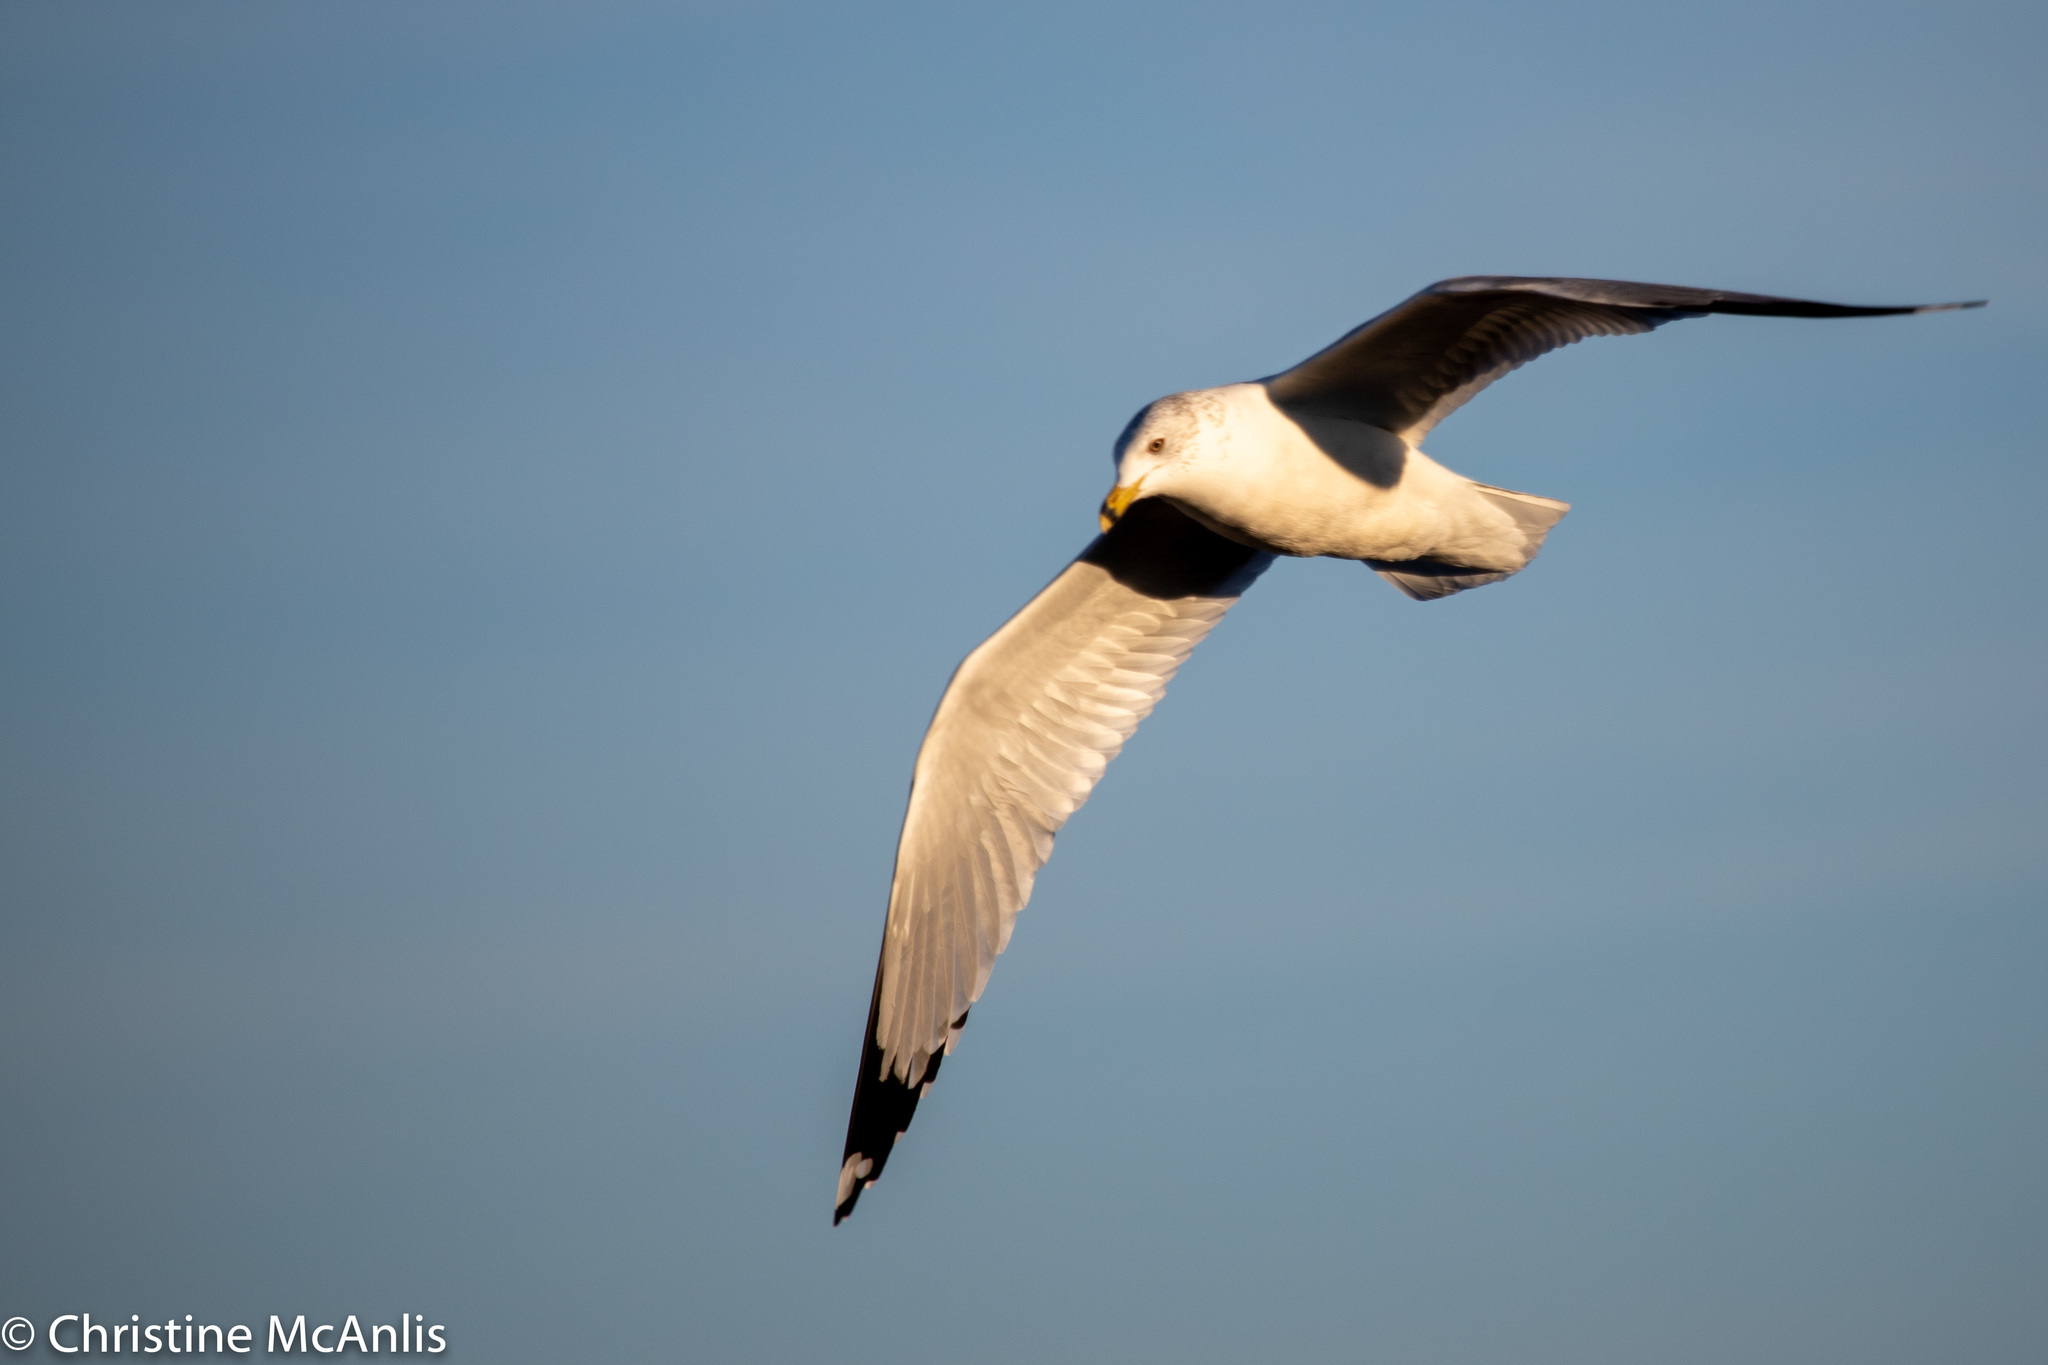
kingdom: Animalia
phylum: Chordata
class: Aves
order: Charadriiformes
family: Laridae
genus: Larus
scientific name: Larus delawarensis
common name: Ring-billed gull
